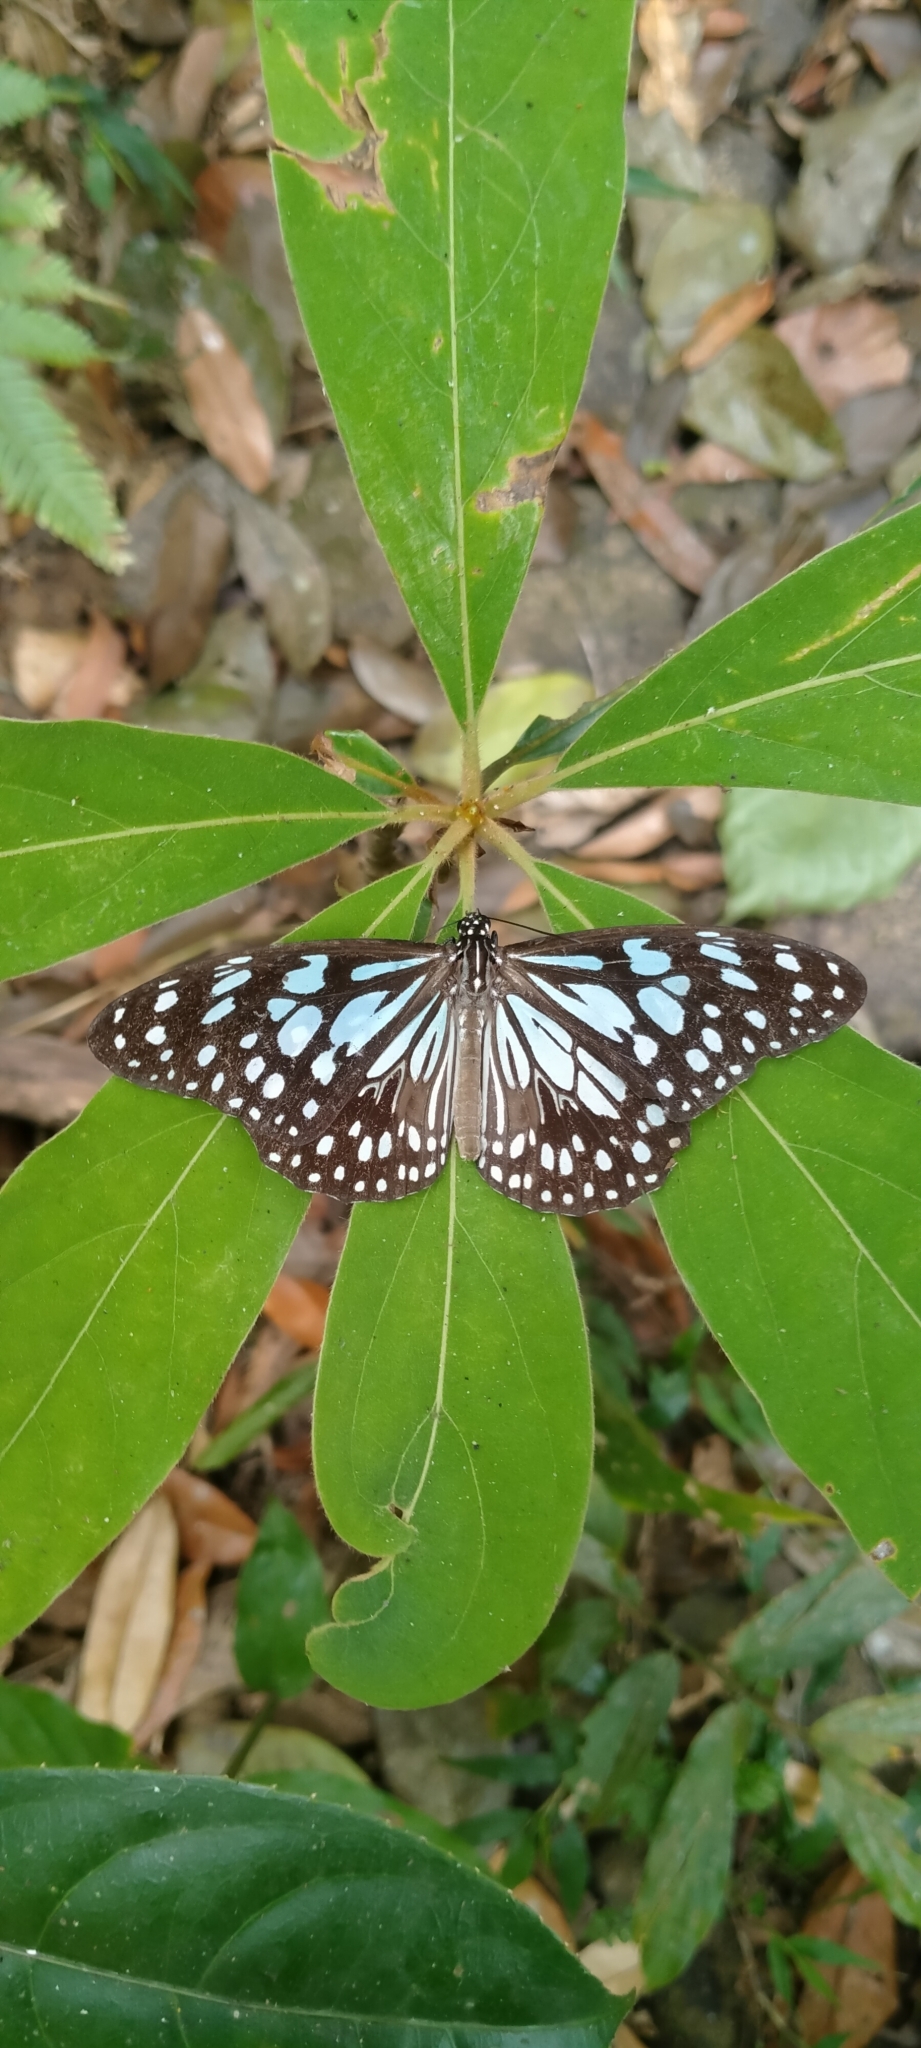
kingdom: Animalia
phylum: Arthropoda
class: Insecta
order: Lepidoptera
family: Nymphalidae
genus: Tirumala
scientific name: Tirumala limniace
